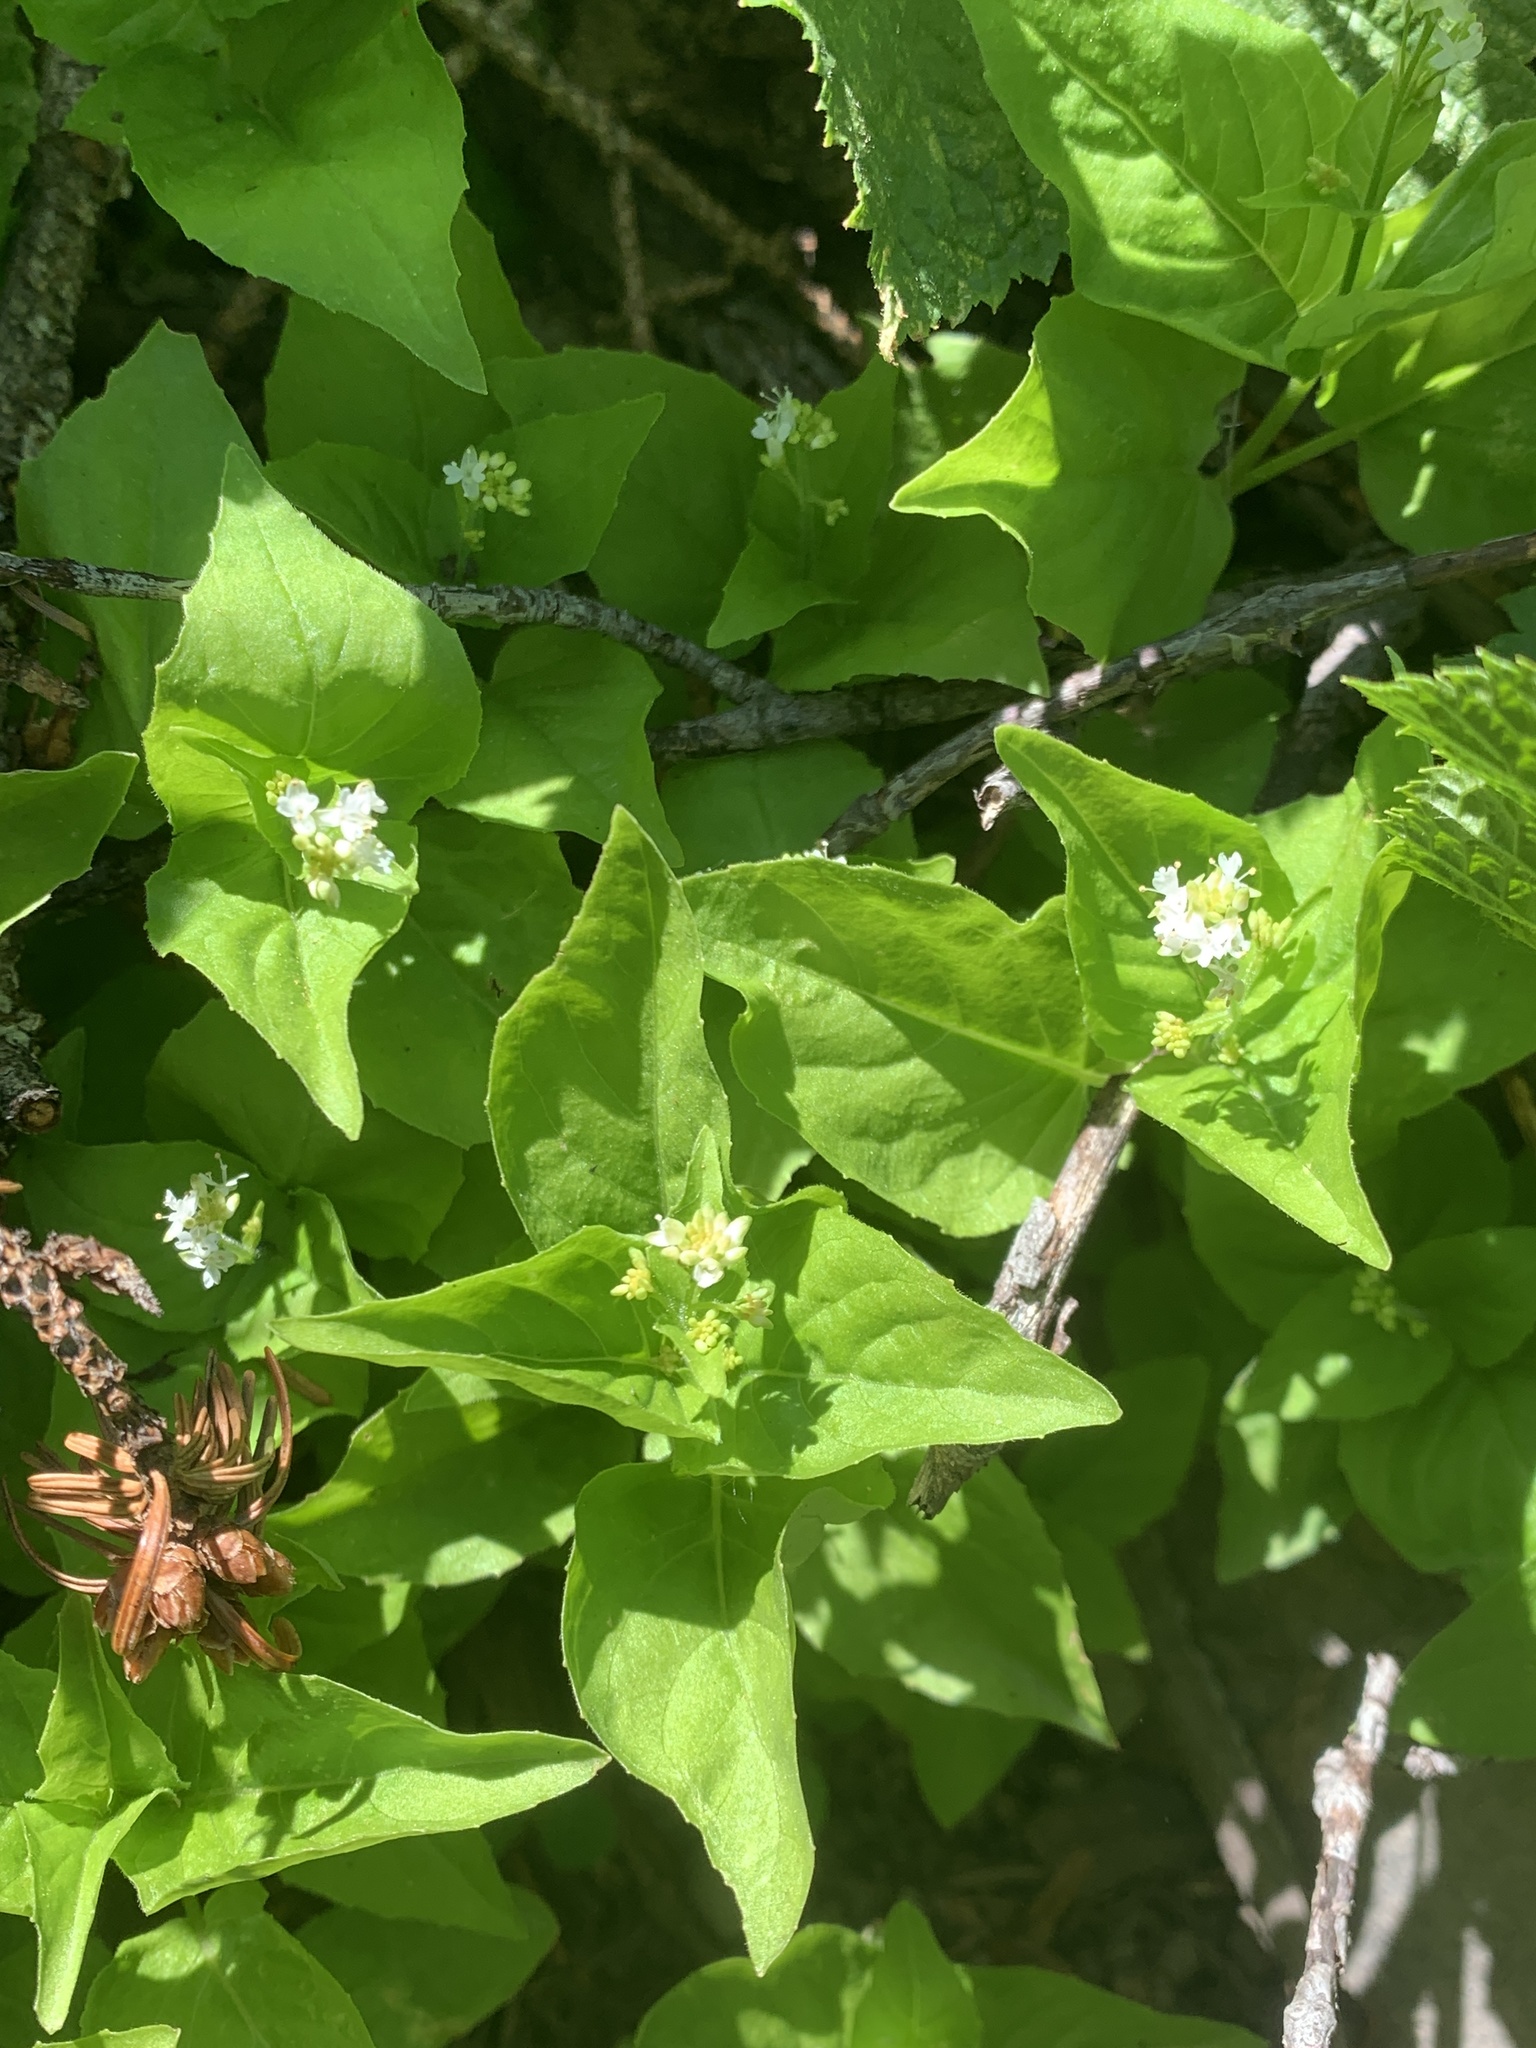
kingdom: Plantae
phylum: Tracheophyta
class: Magnoliopsida
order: Myrtales
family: Onagraceae
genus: Circaea
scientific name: Circaea alpina
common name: Alpine enchanter's-nightshade
